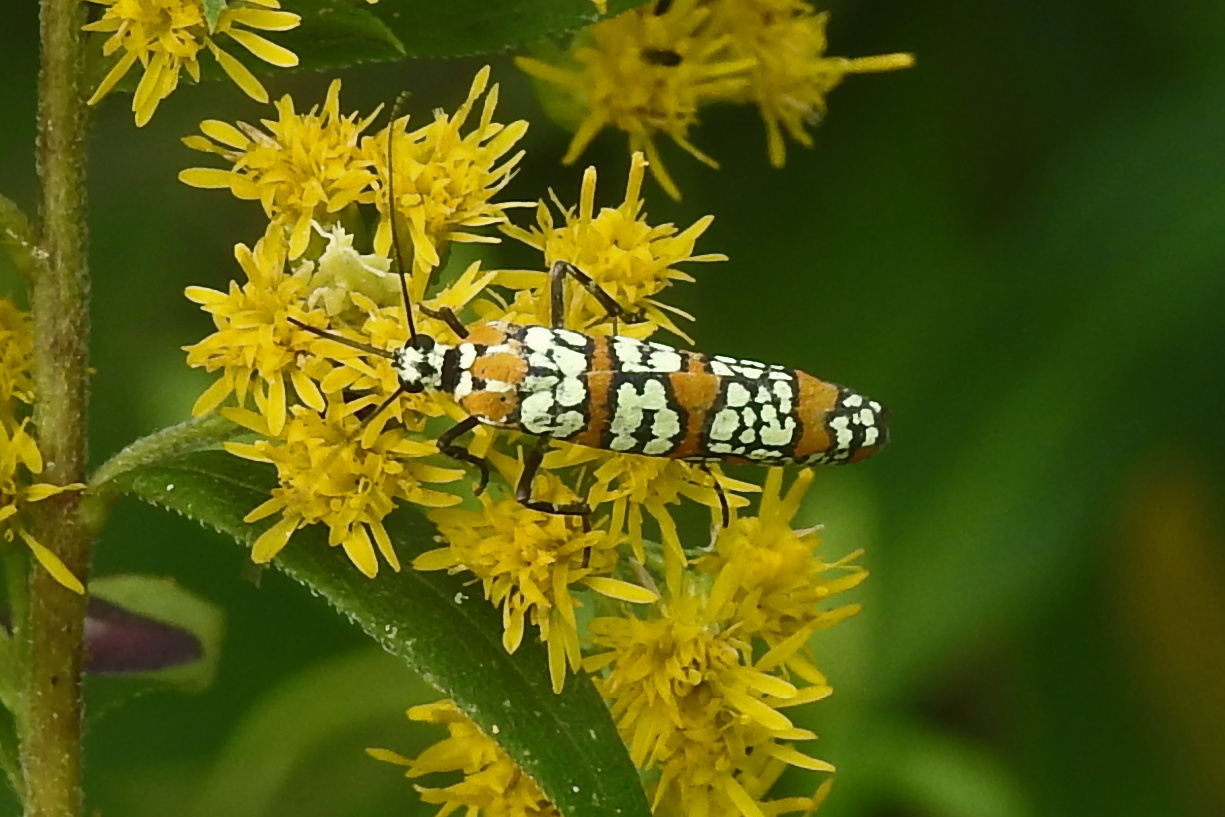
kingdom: Animalia
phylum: Arthropoda
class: Insecta
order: Lepidoptera
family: Attevidae
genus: Atteva
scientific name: Atteva punctella
